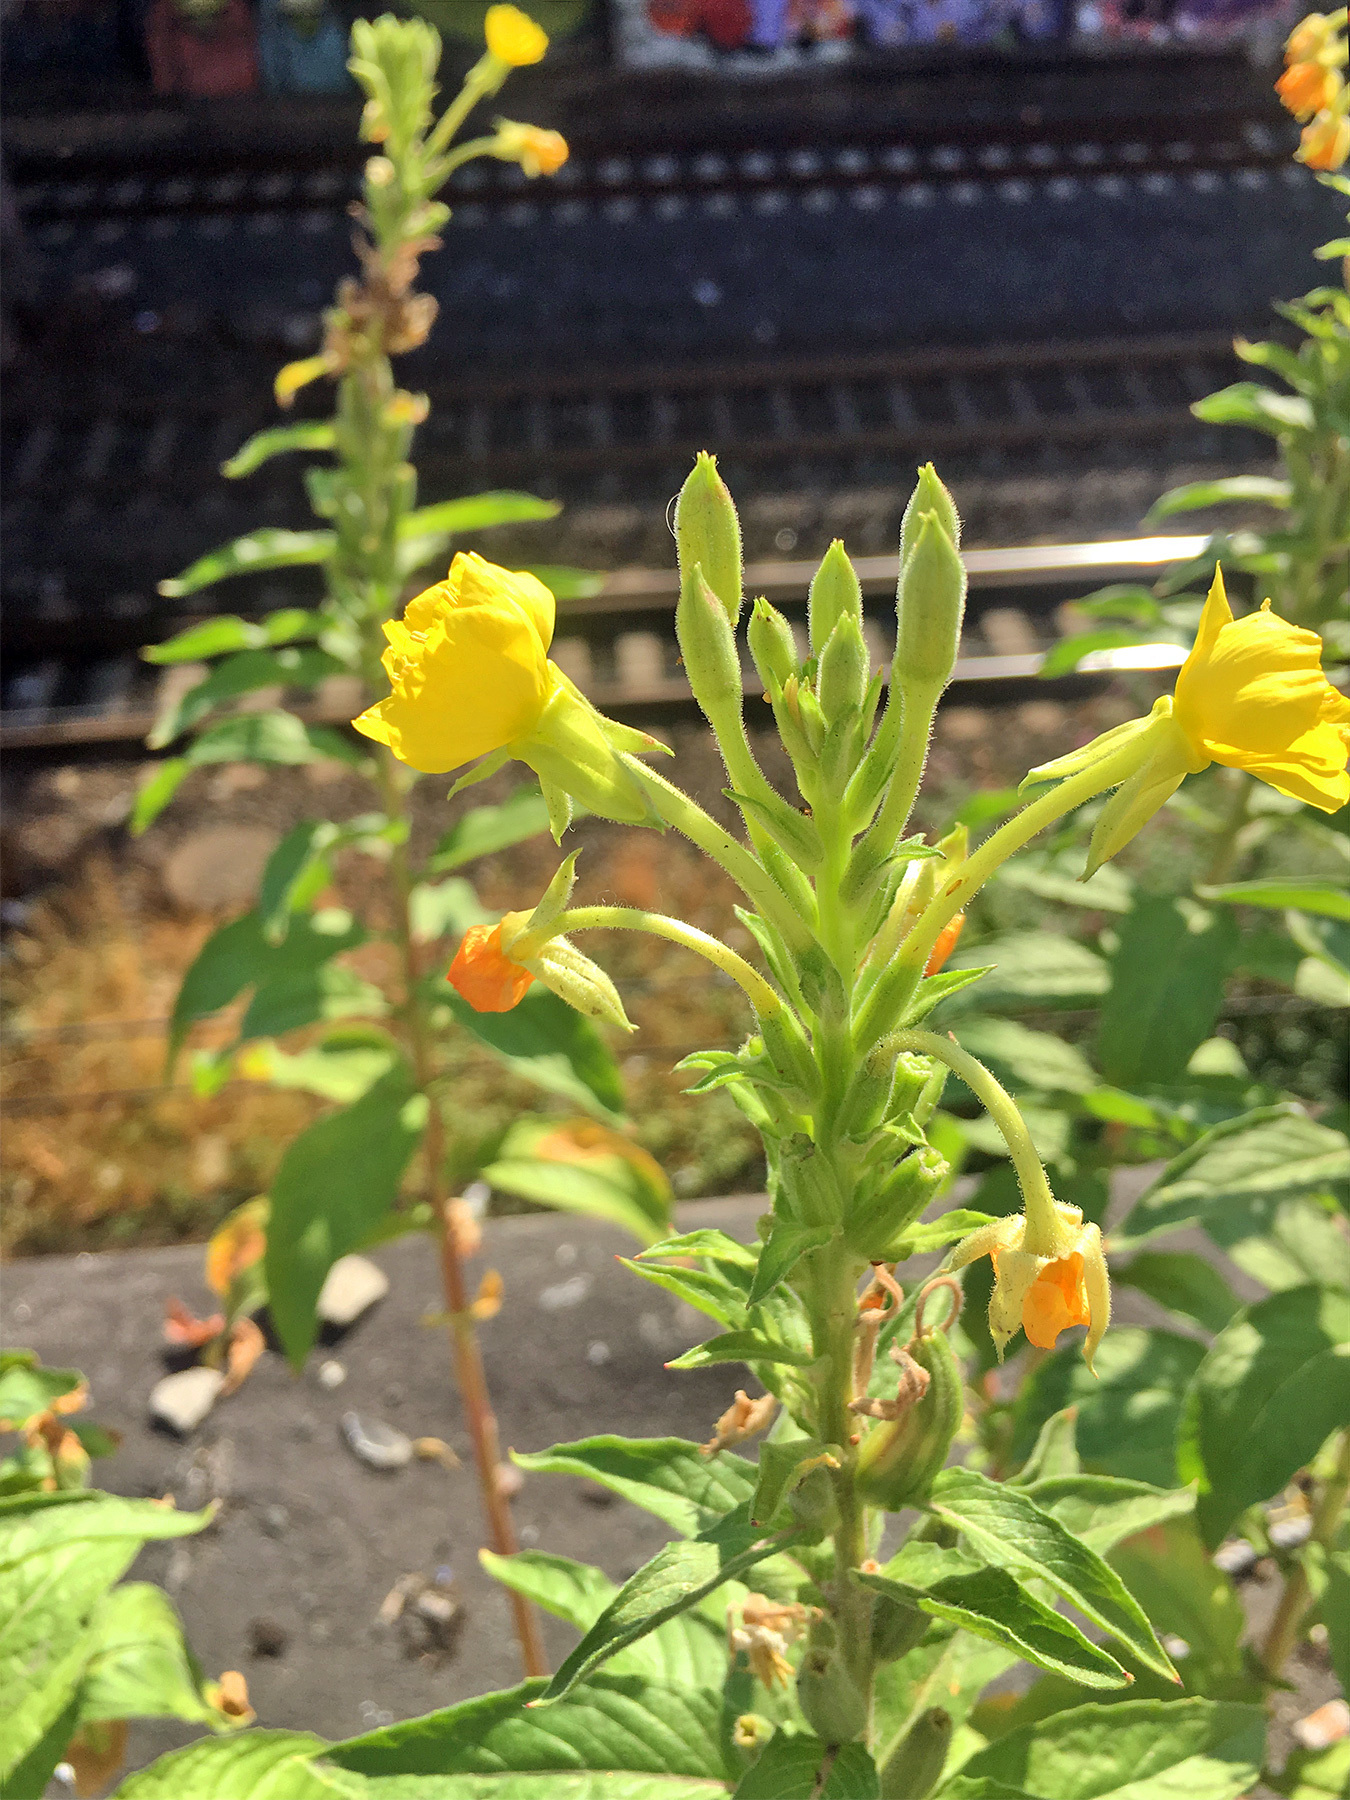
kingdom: Plantae
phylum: Tracheophyta
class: Magnoliopsida
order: Myrtales
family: Onagraceae
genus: Oenothera
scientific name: Oenothera biennis
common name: Common evening-primrose
